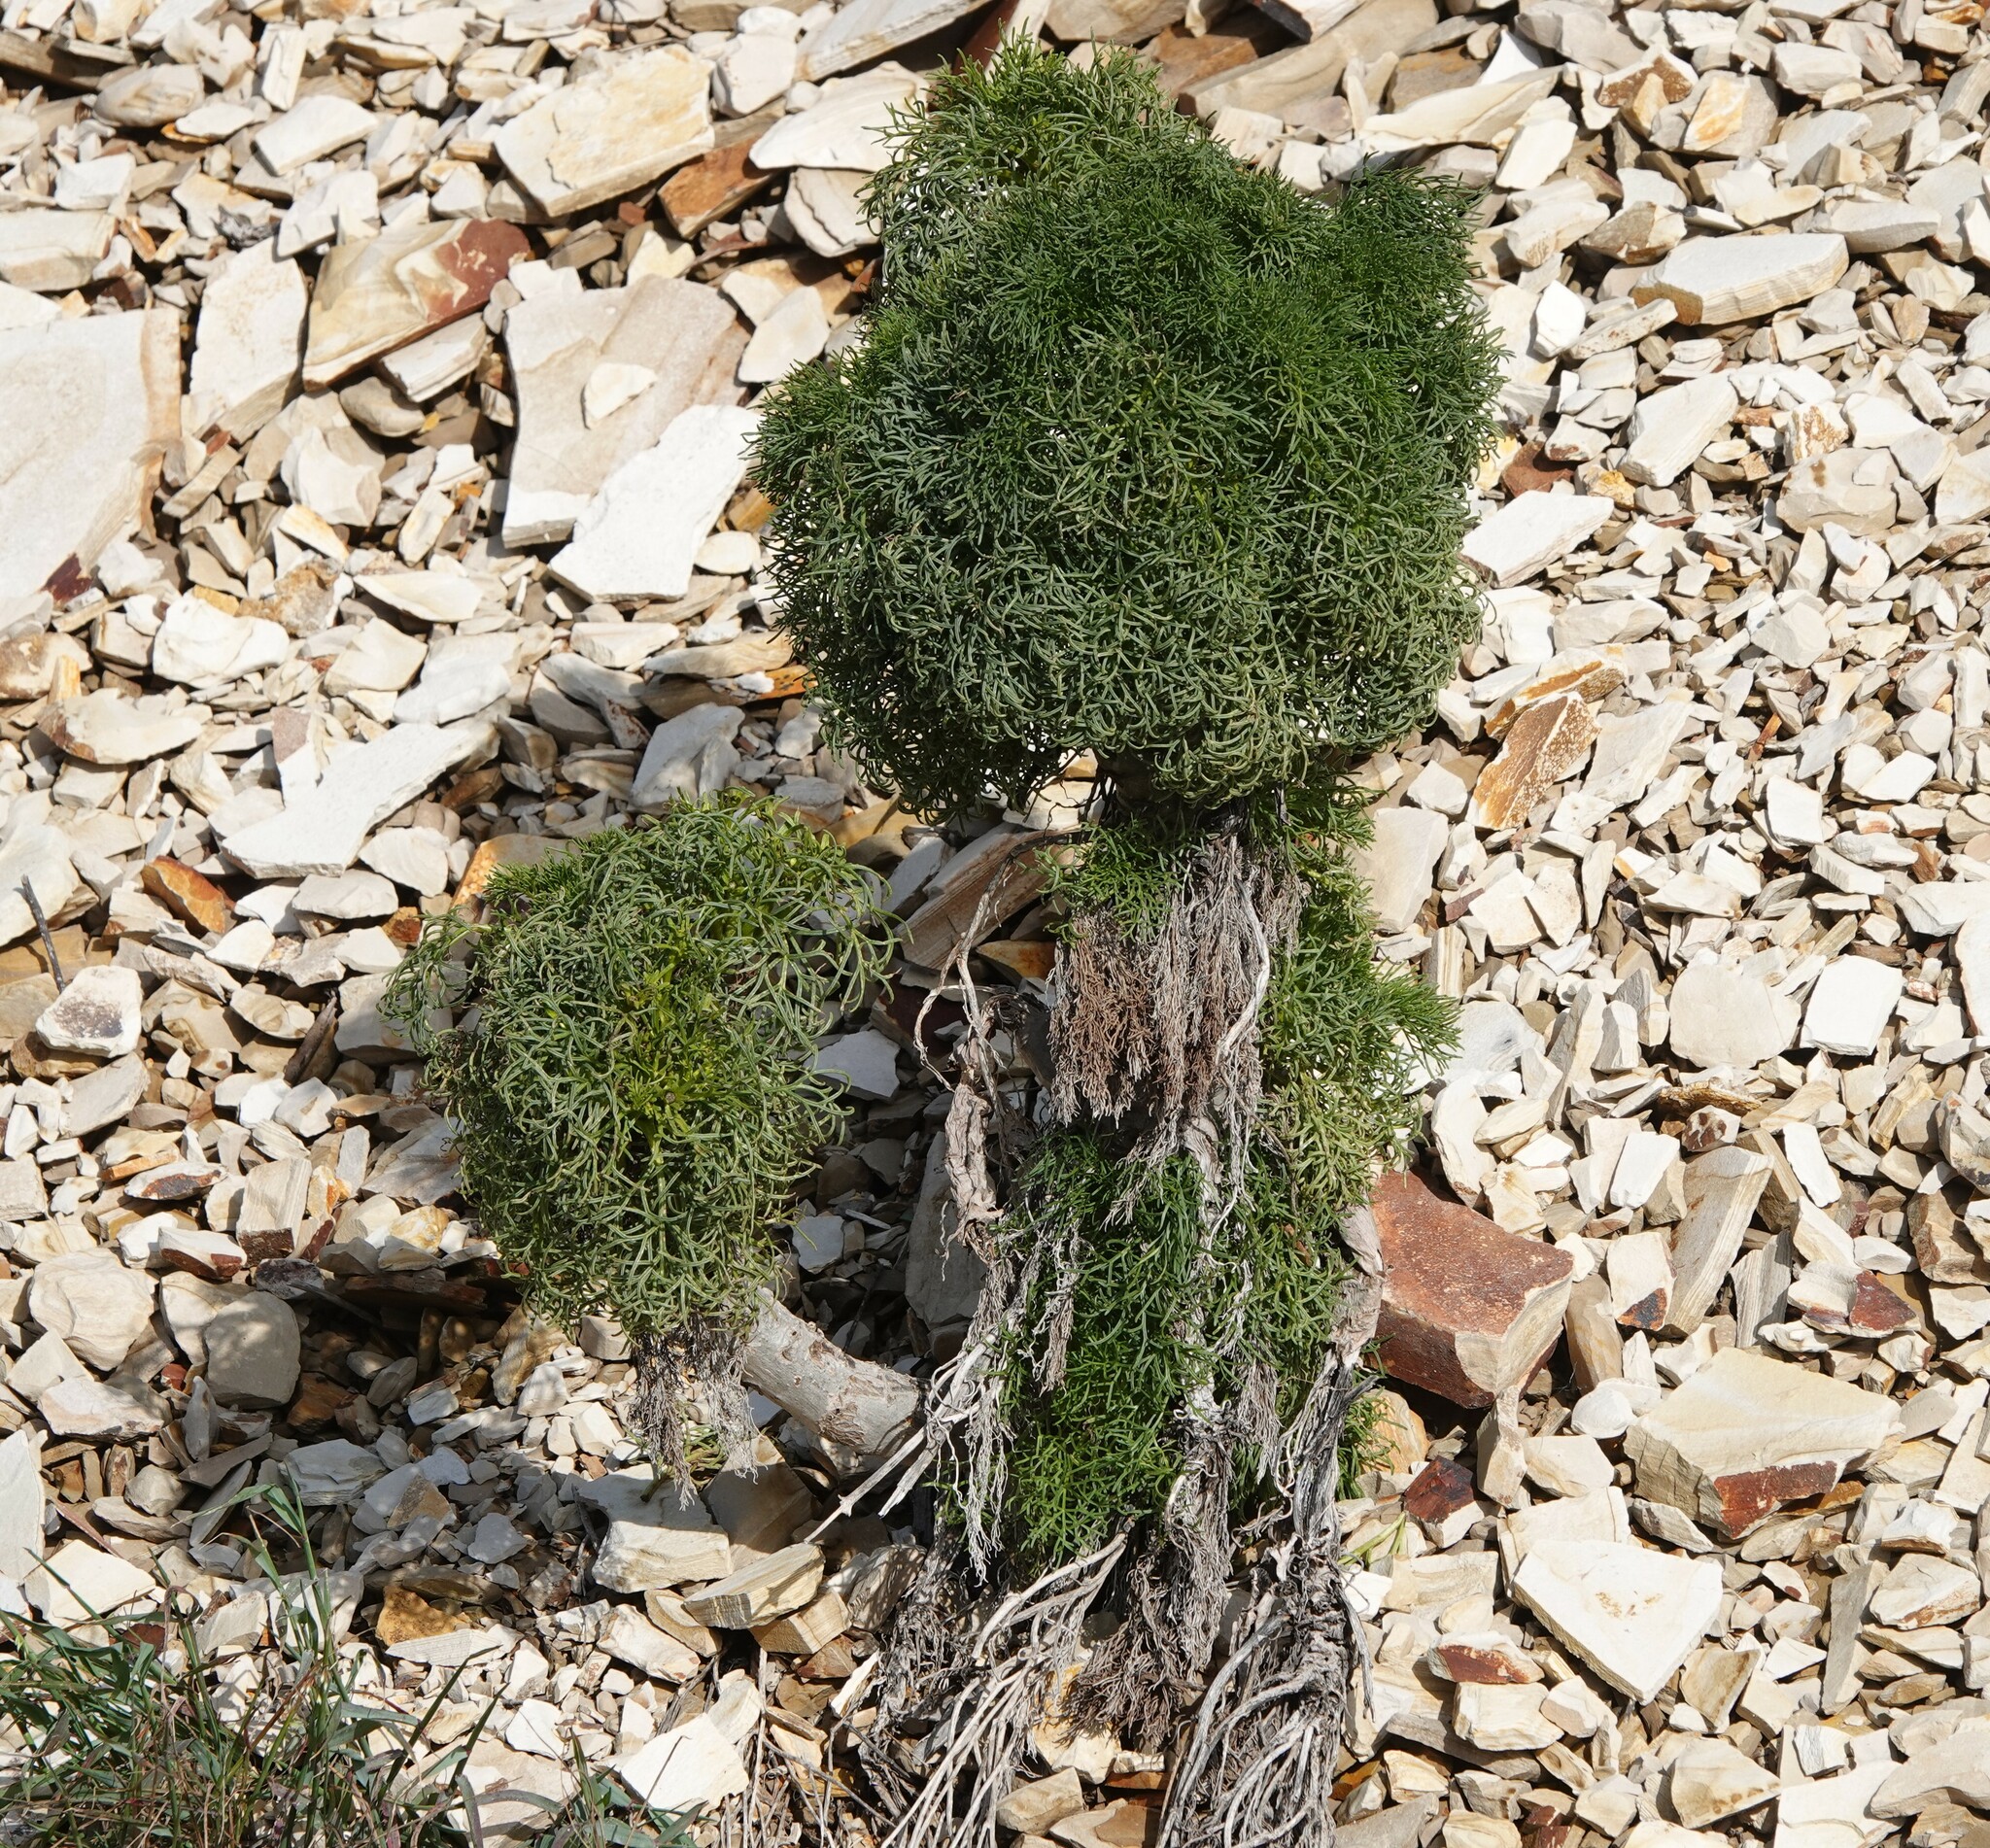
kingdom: Plantae
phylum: Tracheophyta
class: Magnoliopsida
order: Asterales
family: Asteraceae
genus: Coreopsis
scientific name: Coreopsis gigantea
